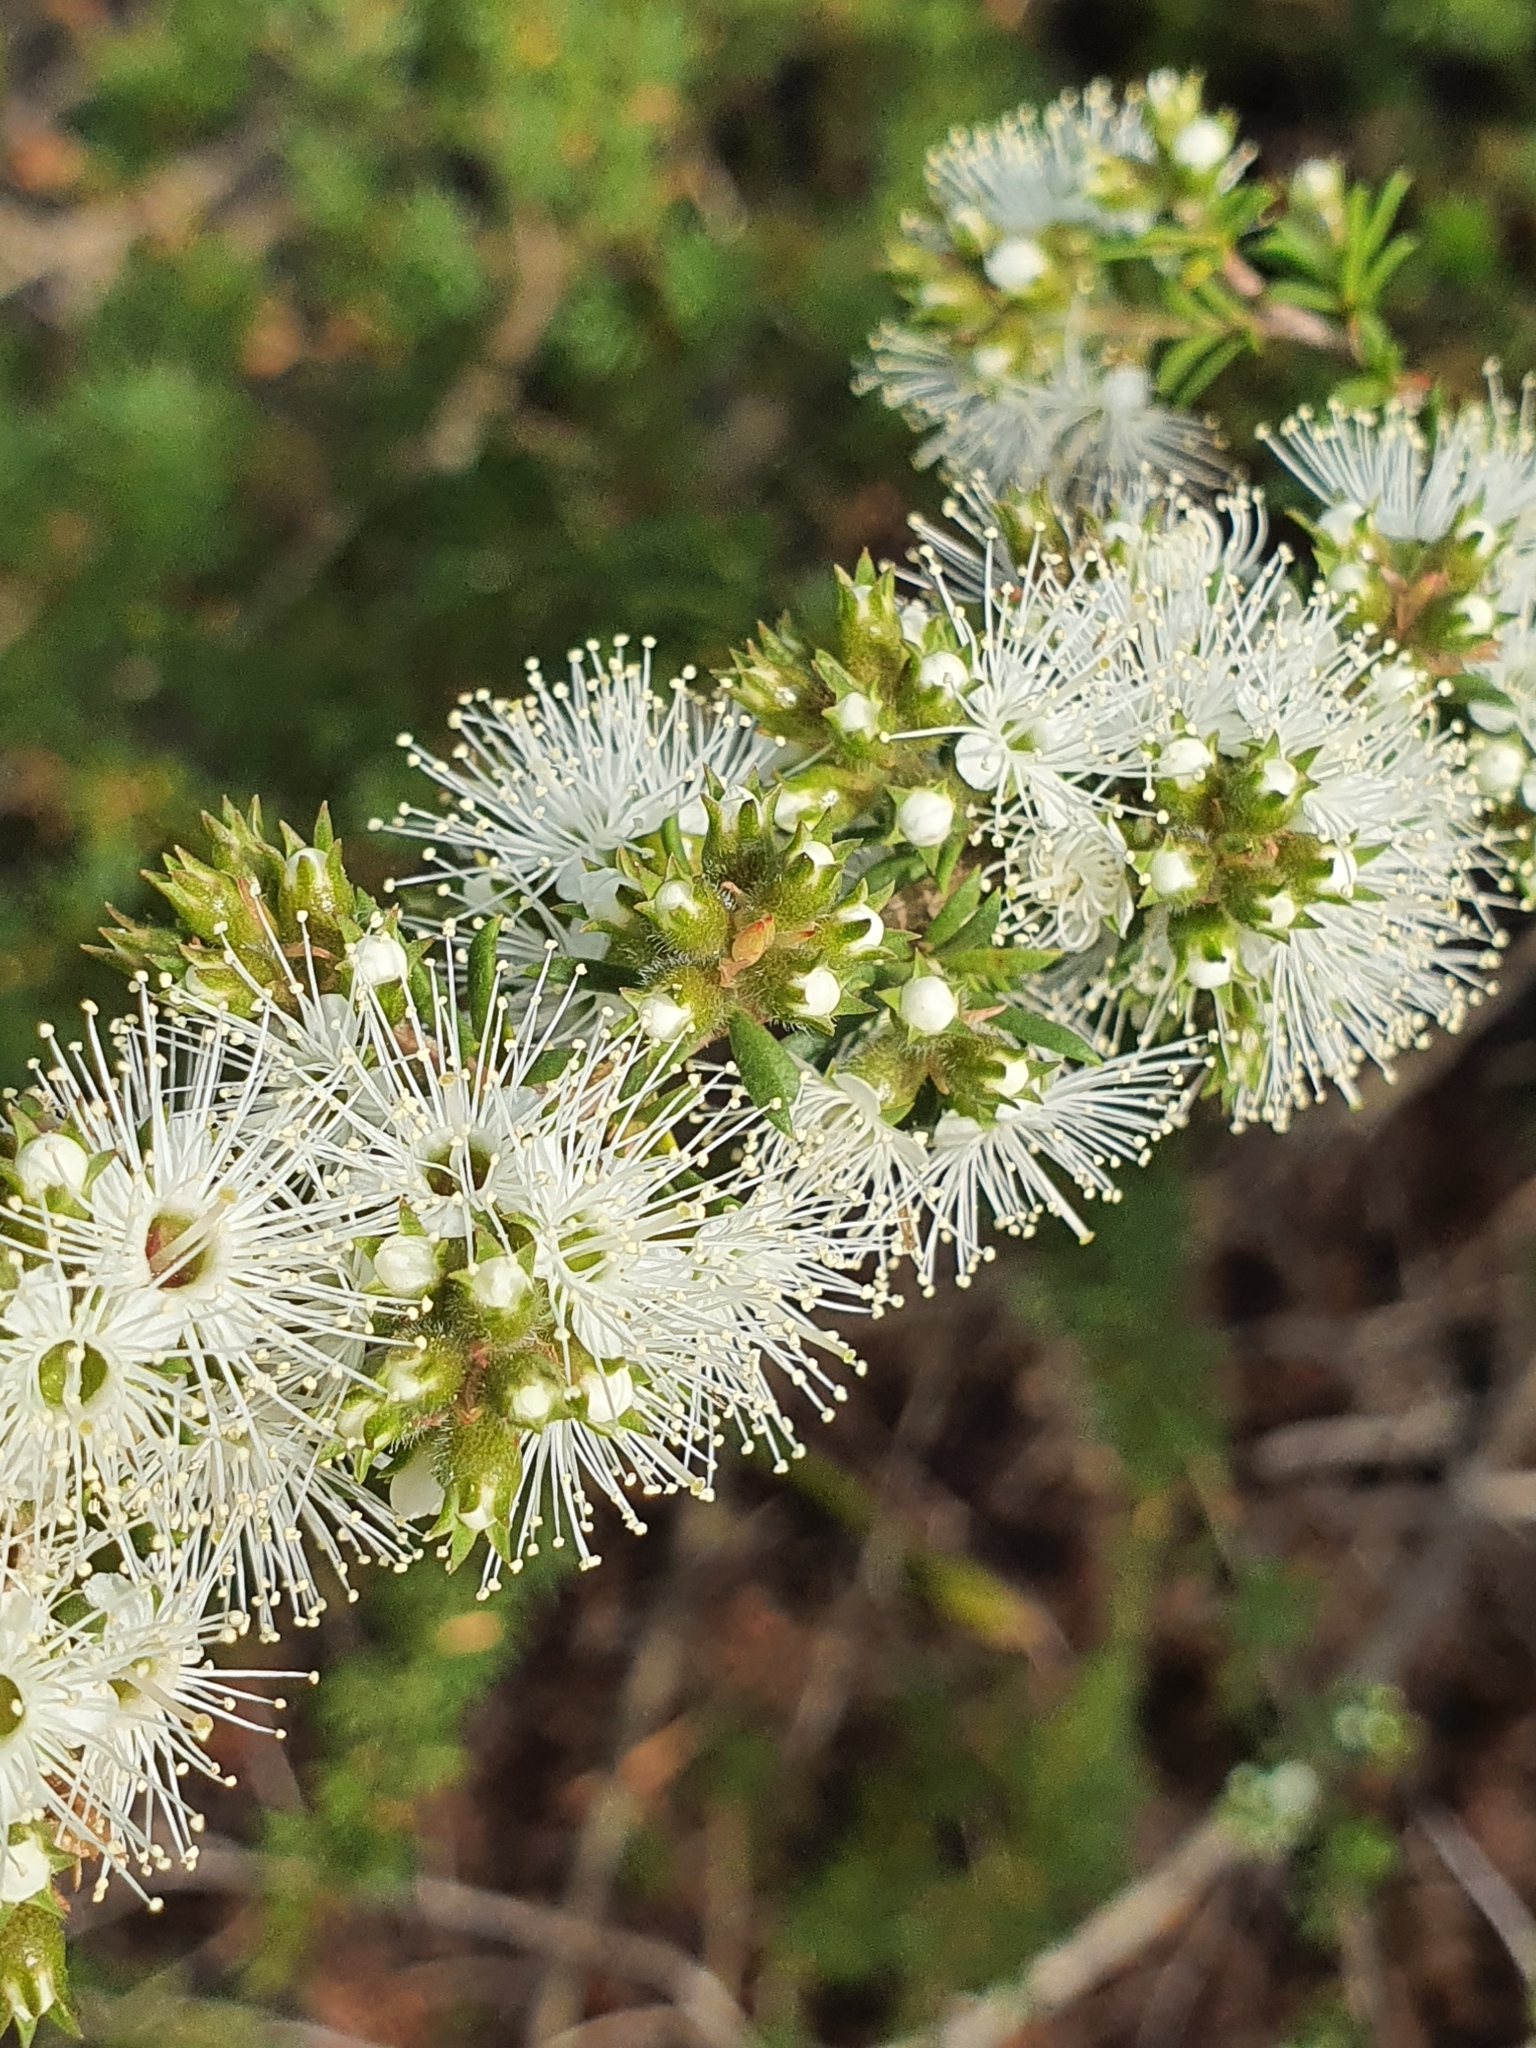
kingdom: Plantae
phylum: Tracheophyta
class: Magnoliopsida
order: Myrtales
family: Myrtaceae
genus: Kunzea
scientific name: Kunzea ambigua
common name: Tickbush
